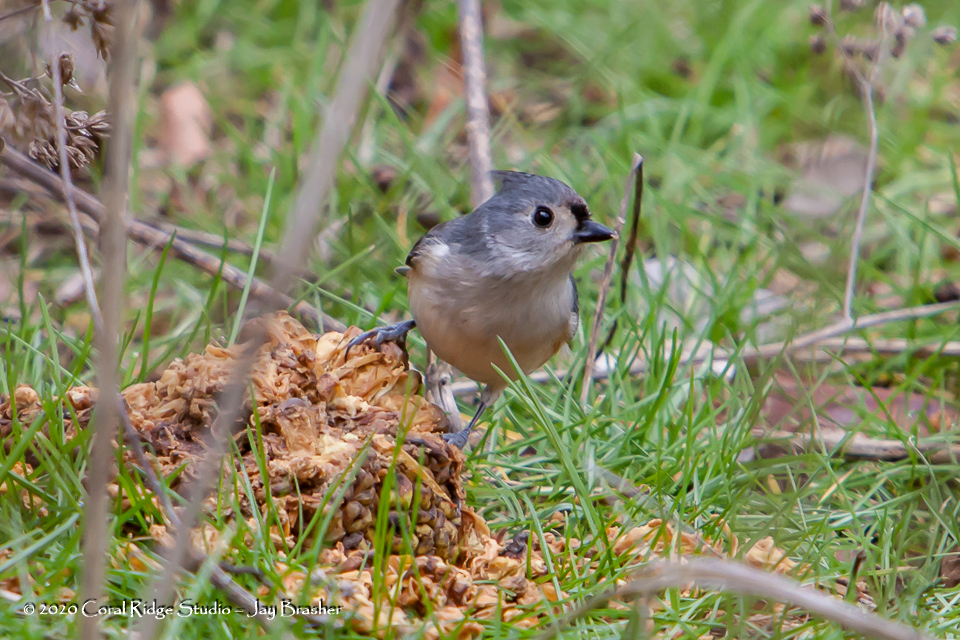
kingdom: Animalia
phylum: Chordata
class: Aves
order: Passeriformes
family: Paridae
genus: Baeolophus
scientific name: Baeolophus bicolor
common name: Tufted titmouse
